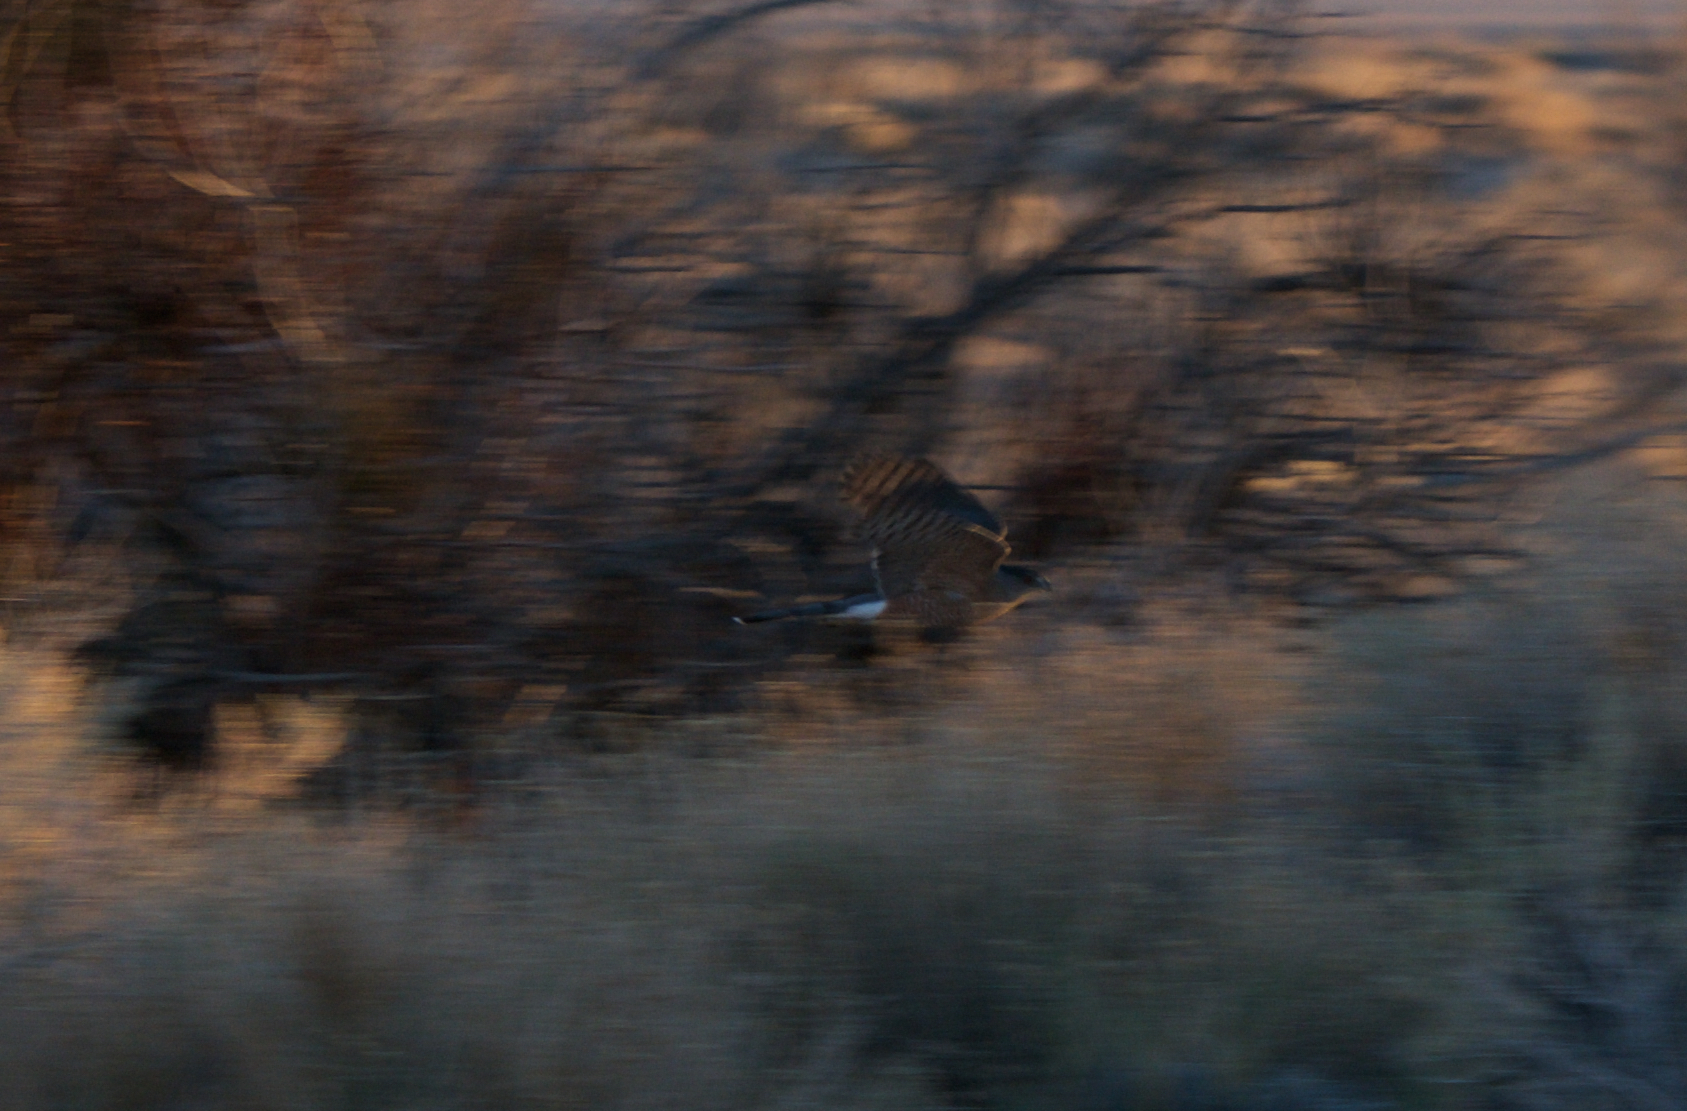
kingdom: Animalia
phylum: Chordata
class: Aves
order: Accipitriformes
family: Accipitridae
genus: Accipiter
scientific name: Accipiter cooperii
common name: Cooper's hawk
